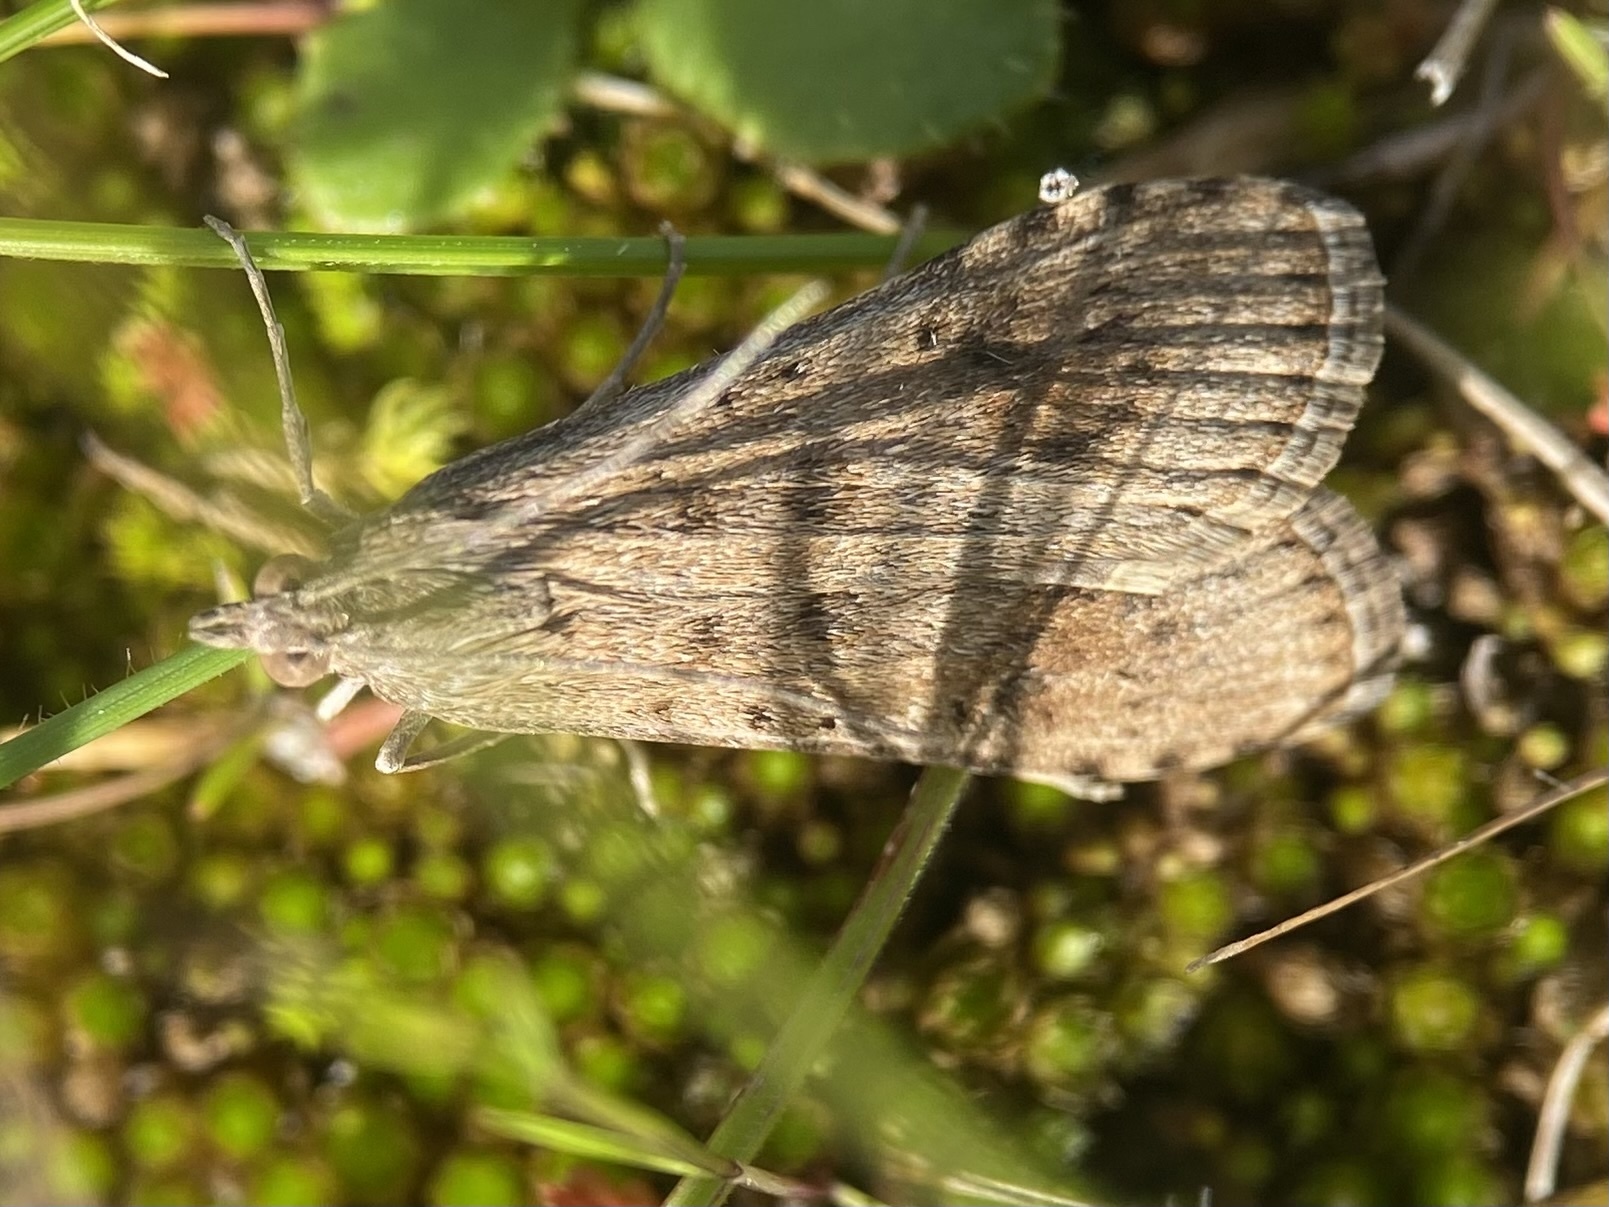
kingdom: Animalia
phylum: Arthropoda
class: Insecta
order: Lepidoptera
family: Crambidae
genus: Nomophila
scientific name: Nomophila noctuella
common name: Rush veneer
